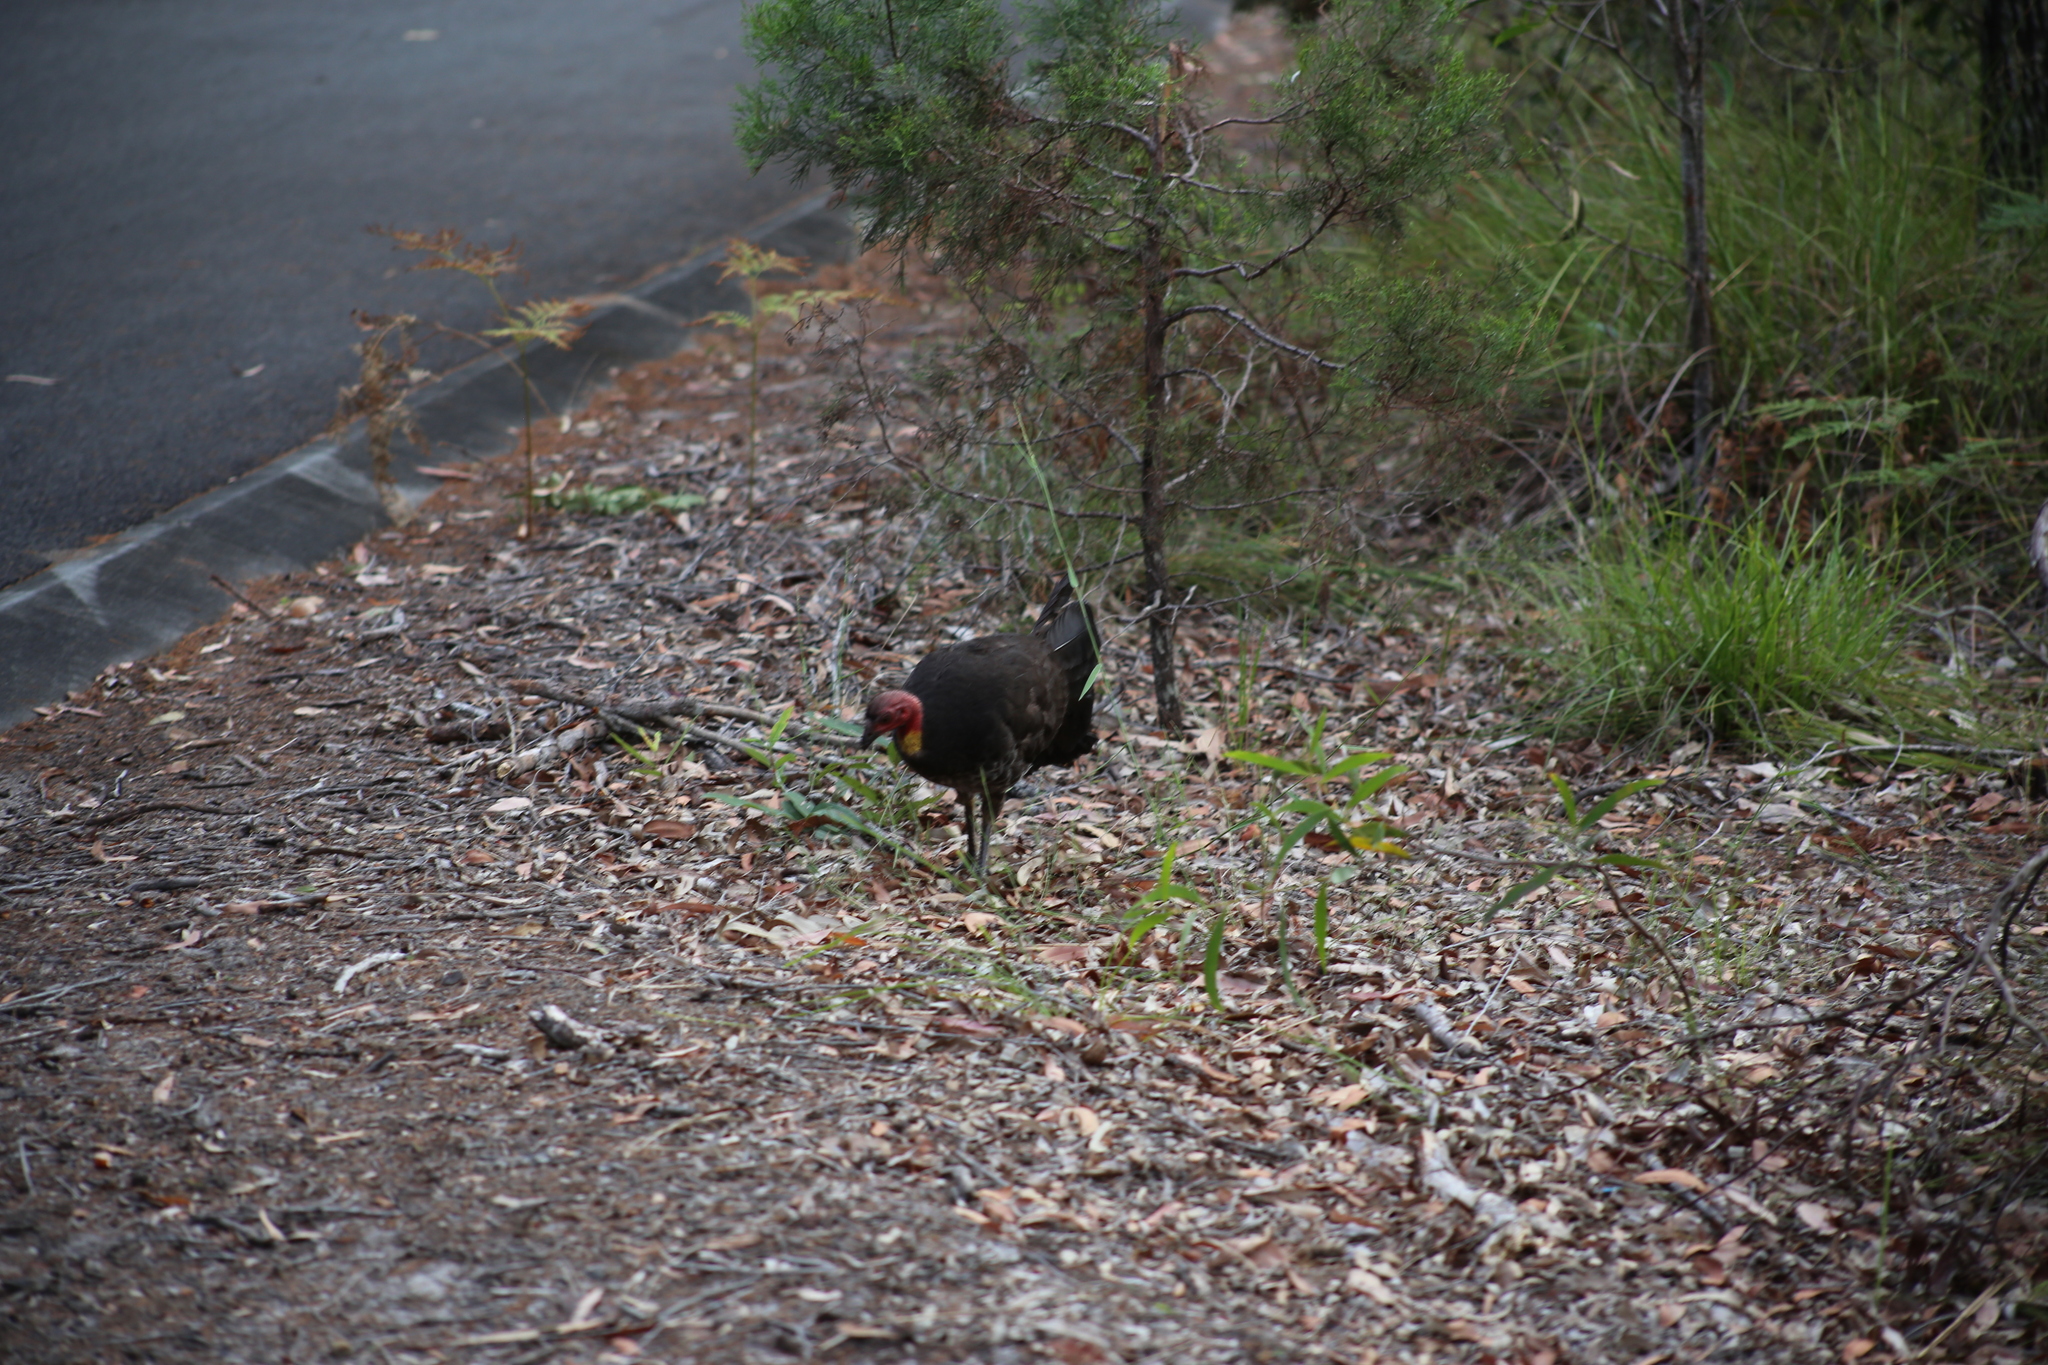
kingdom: Animalia
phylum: Chordata
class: Aves
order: Galliformes
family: Megapodiidae
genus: Alectura
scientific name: Alectura lathami
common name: Australian brushturkey
